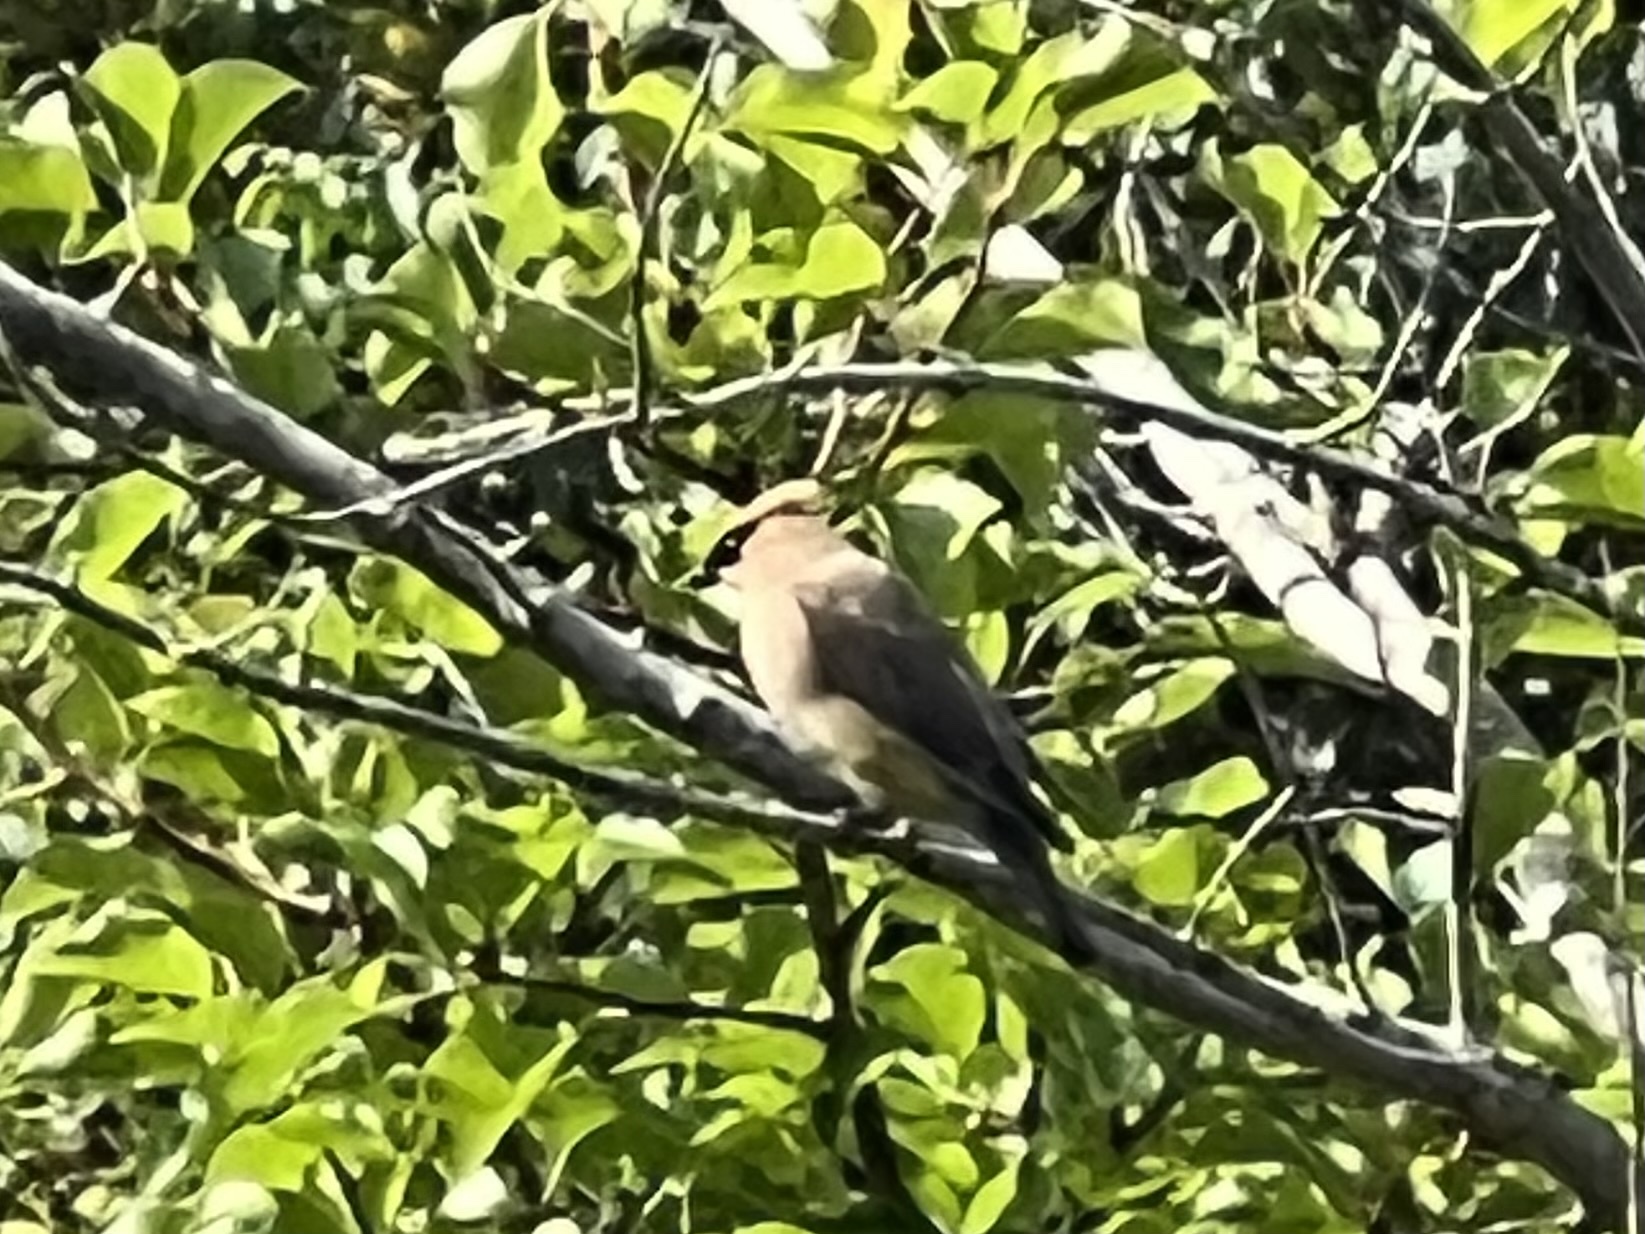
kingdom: Animalia
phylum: Chordata
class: Aves
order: Passeriformes
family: Bombycillidae
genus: Bombycilla
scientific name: Bombycilla cedrorum
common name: Cedar waxwing
